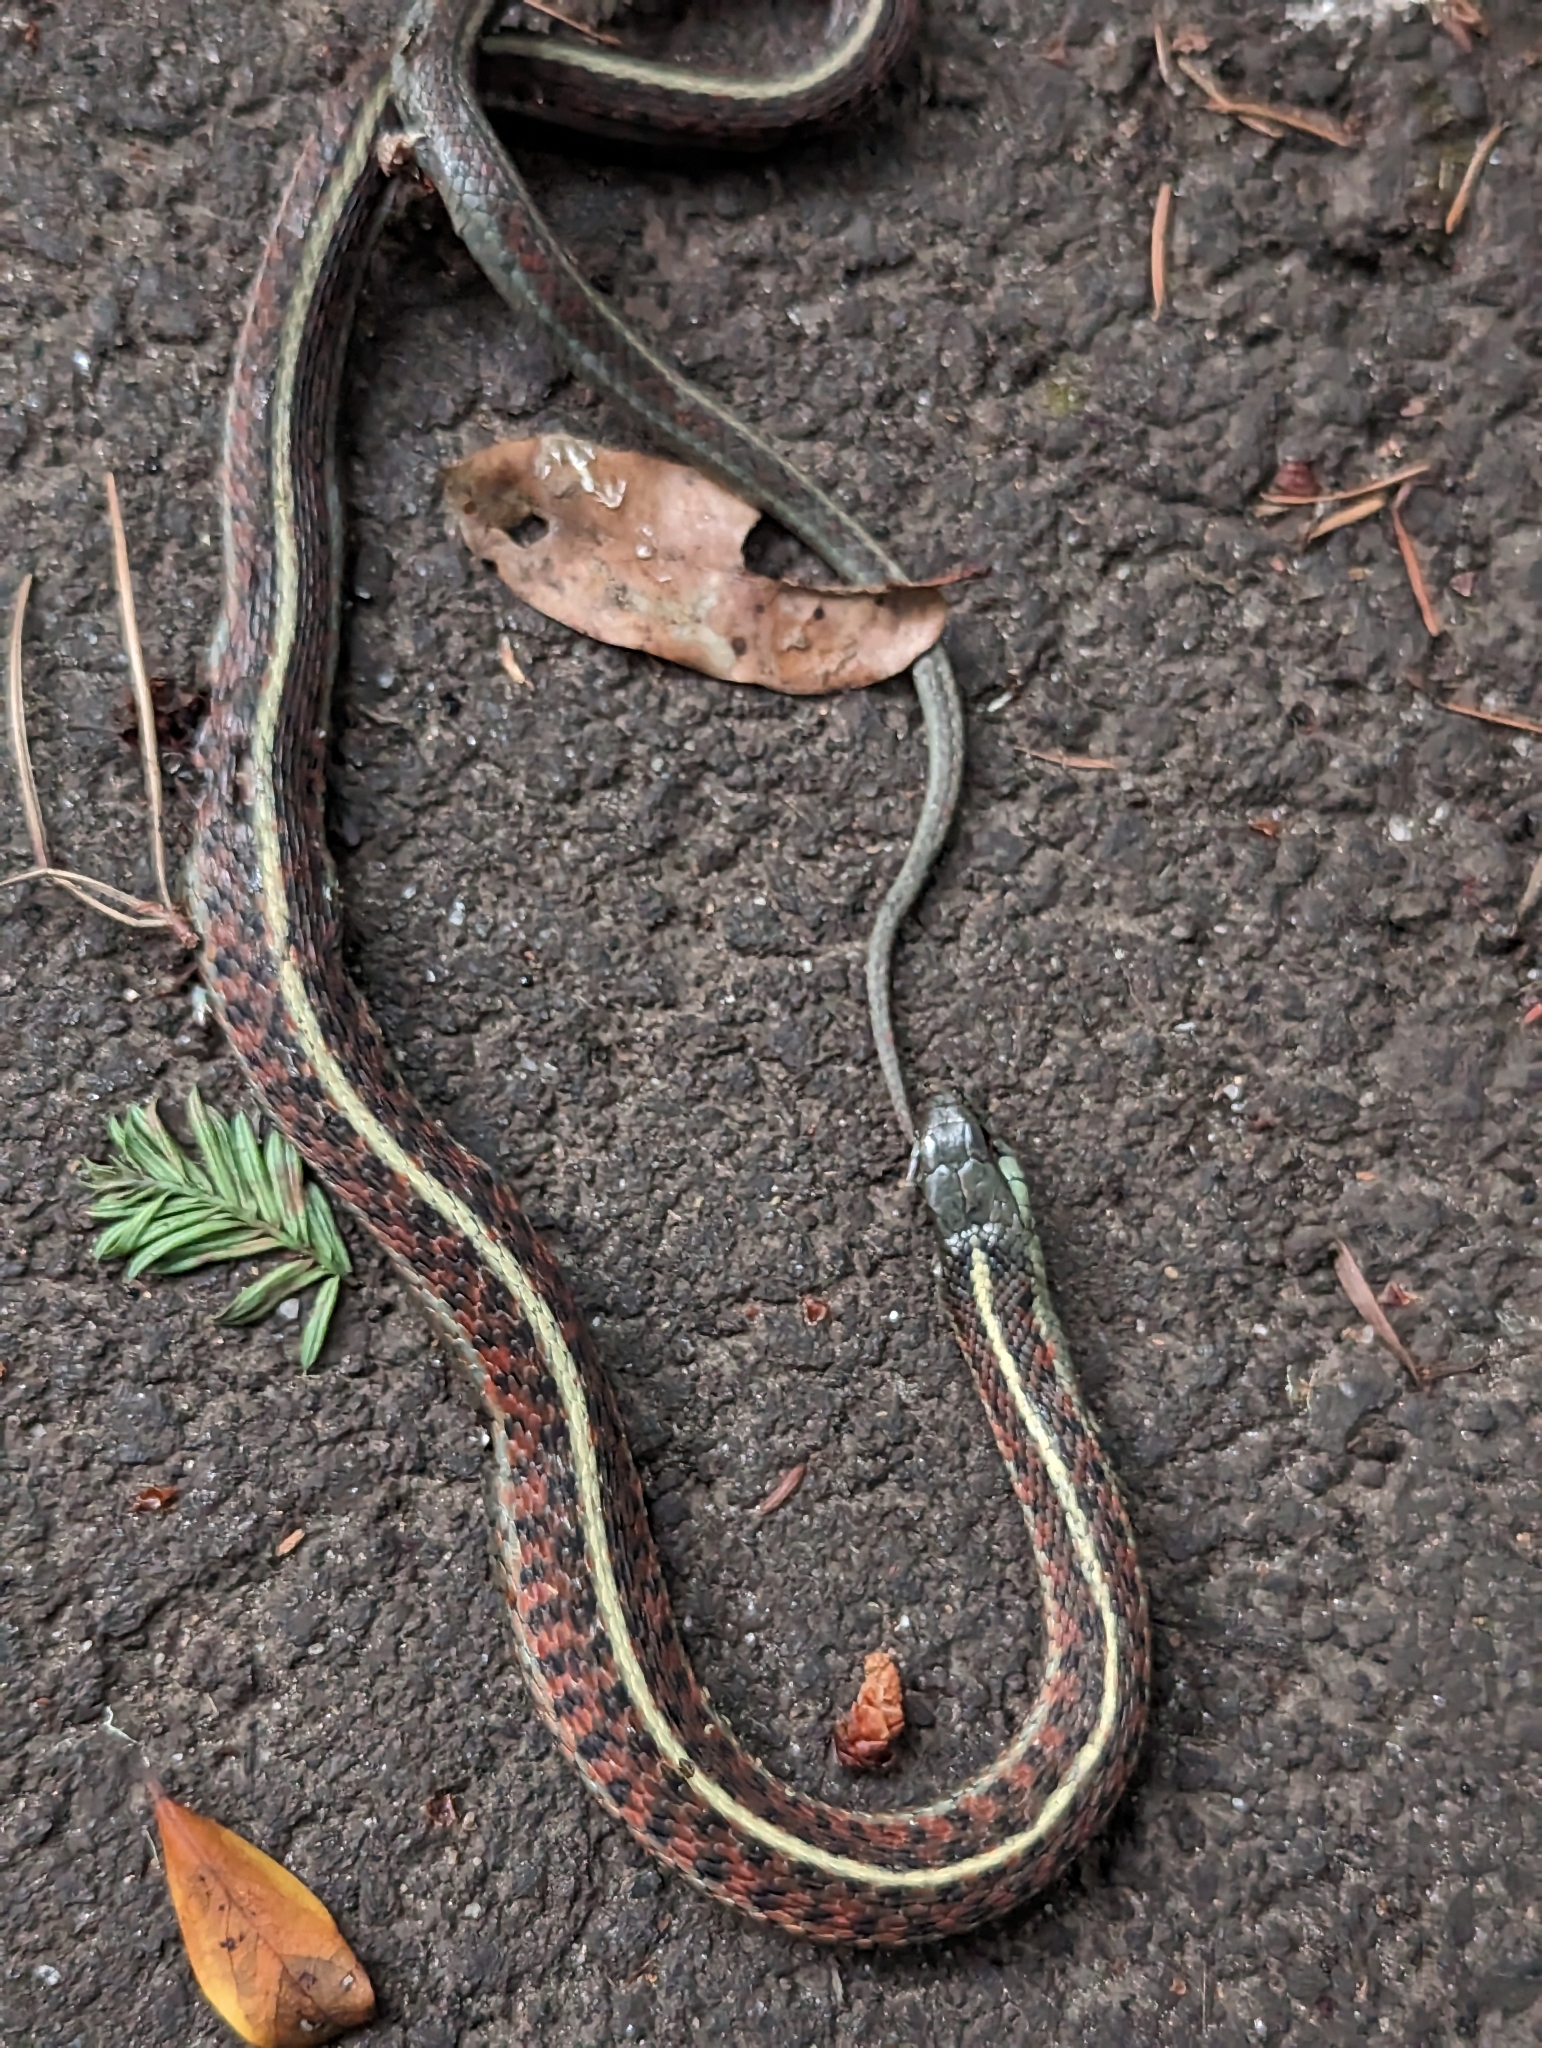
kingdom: Animalia
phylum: Chordata
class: Squamata
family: Colubridae
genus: Thamnophis
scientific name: Thamnophis elegans
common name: Western terrestrial garter snake
